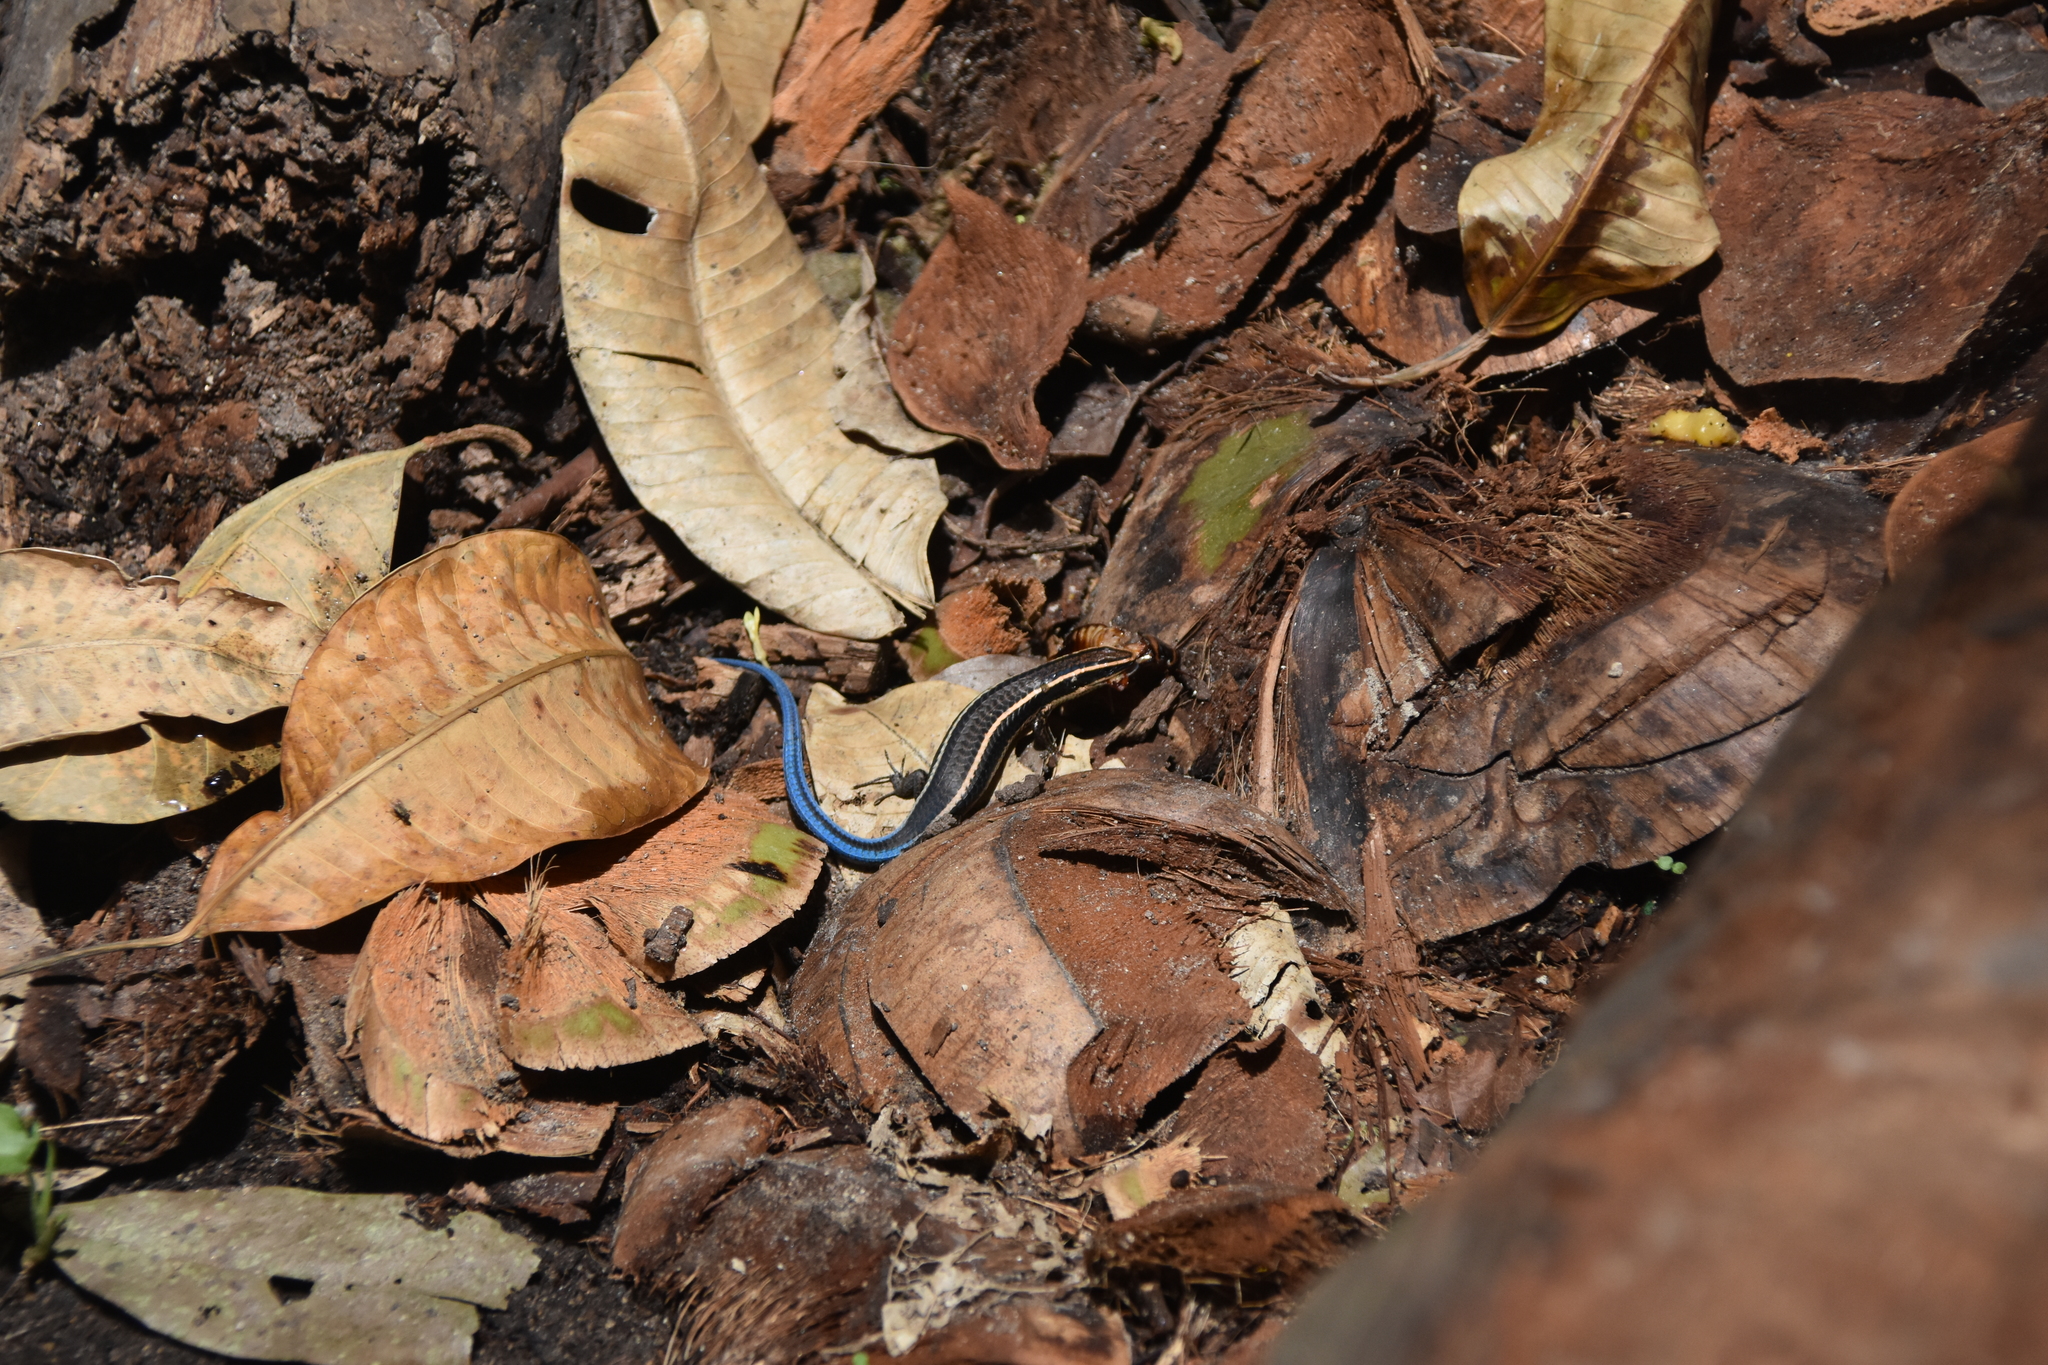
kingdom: Animalia
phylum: Chordata
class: Squamata
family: Gymnophthalmidae
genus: Tretioscincus
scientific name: Tretioscincus bifasciatus
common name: Rio magdalena tegu
